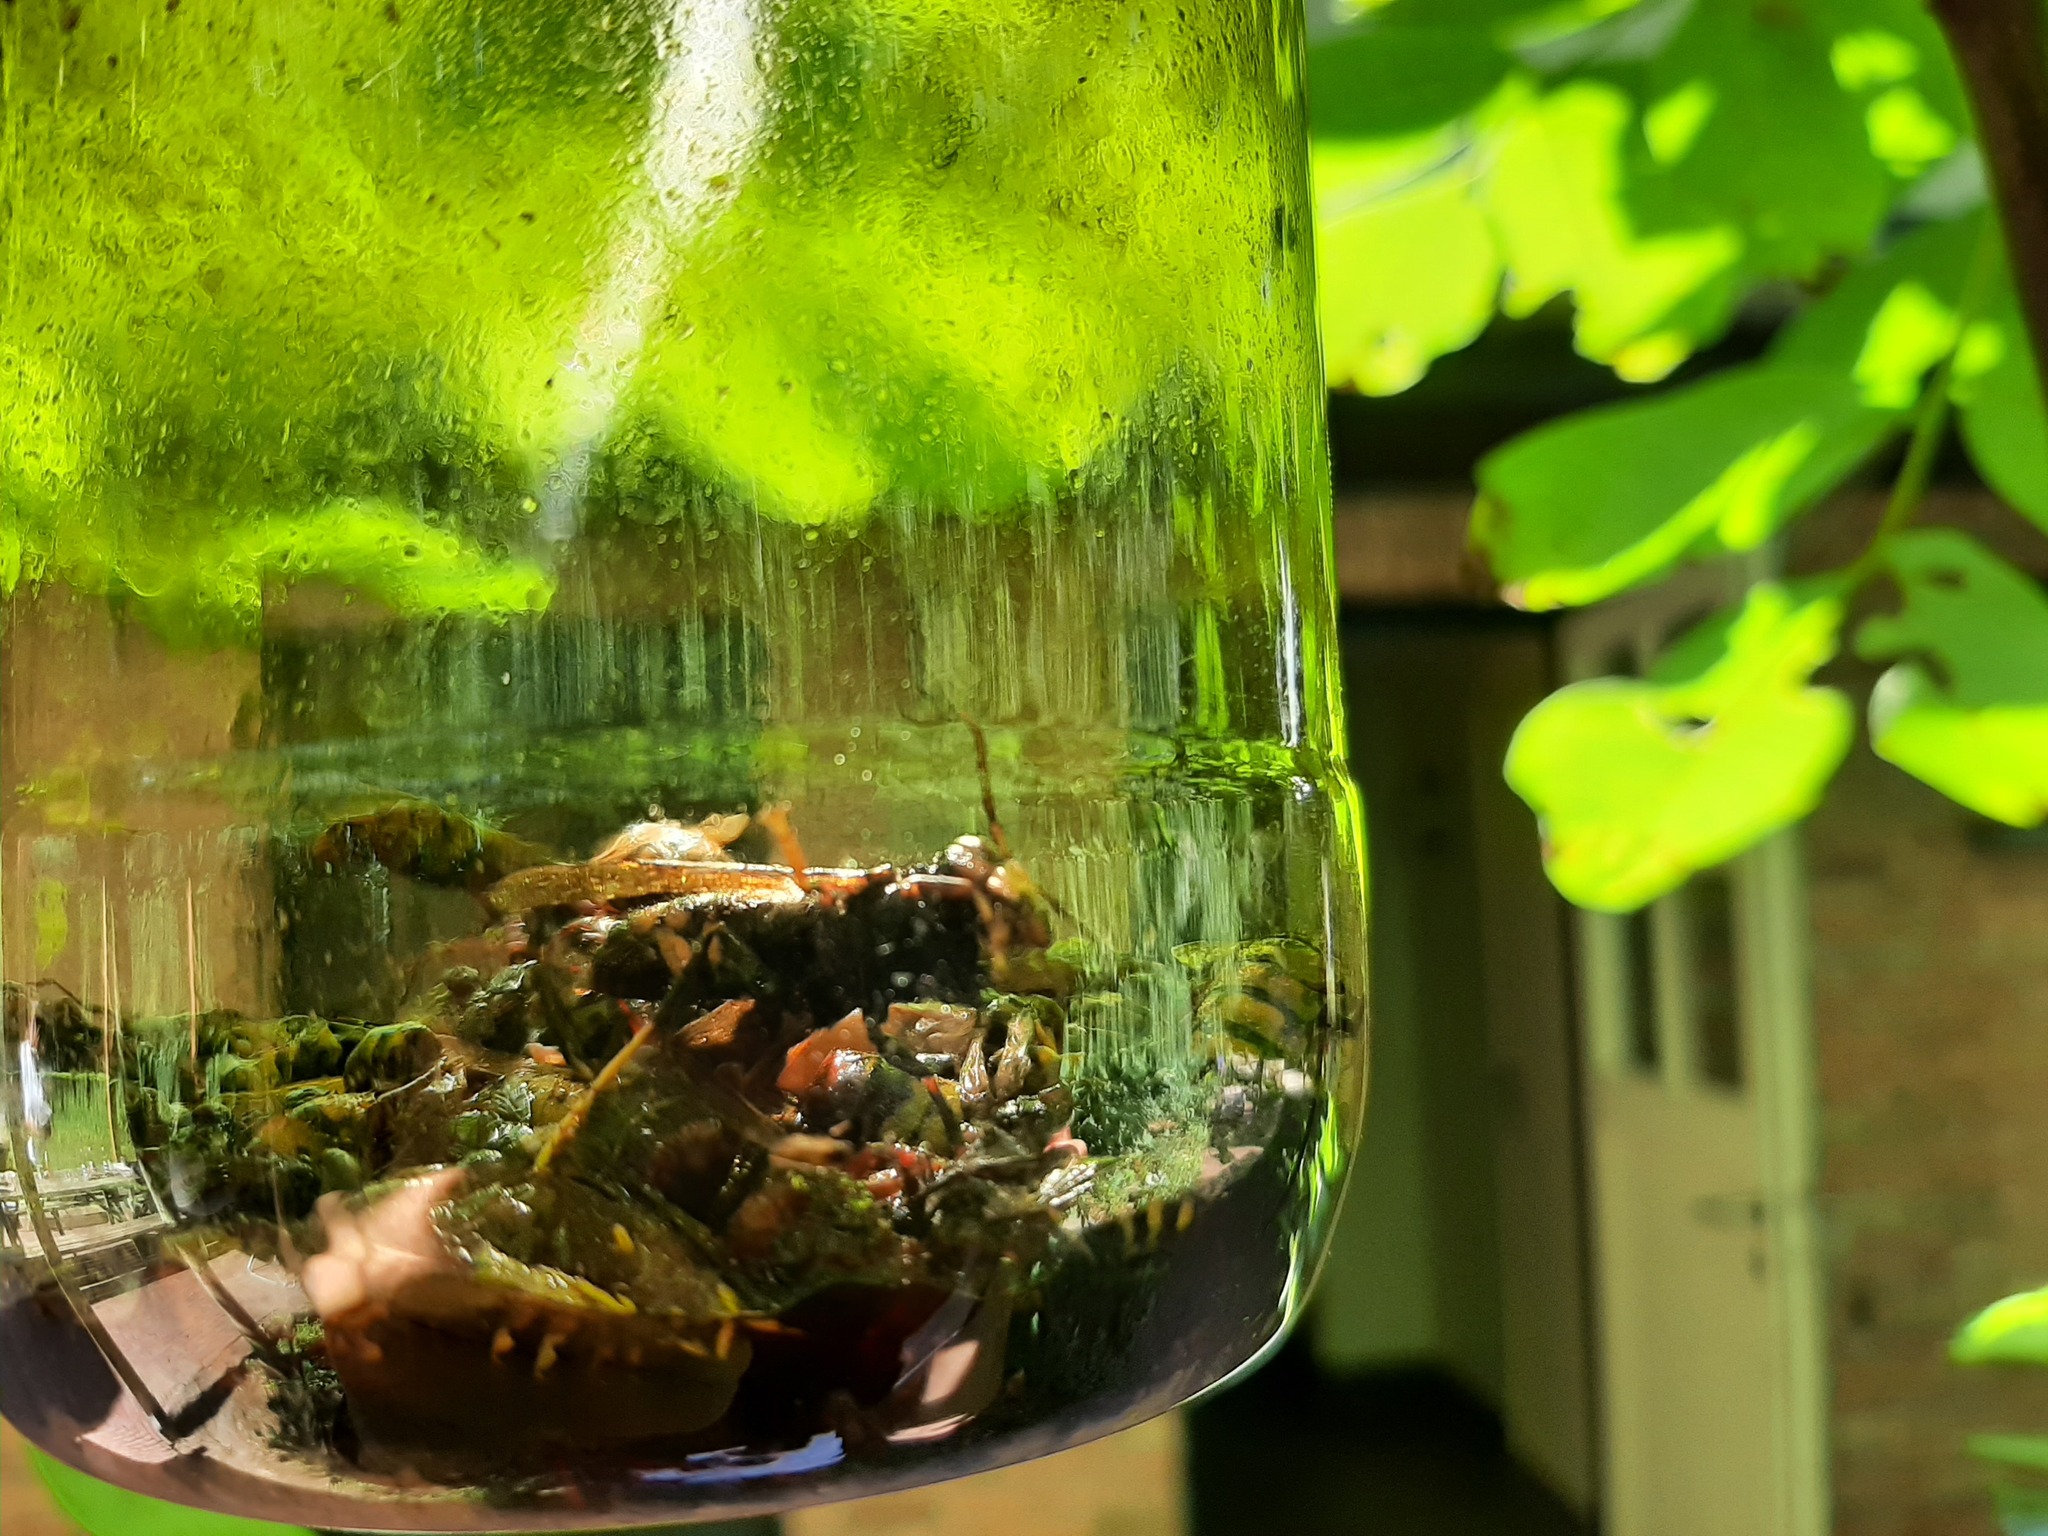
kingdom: Animalia
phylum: Arthropoda
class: Insecta
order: Hymenoptera
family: Vespidae
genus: Vespa
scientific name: Vespa velutina
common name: Asian hornet
